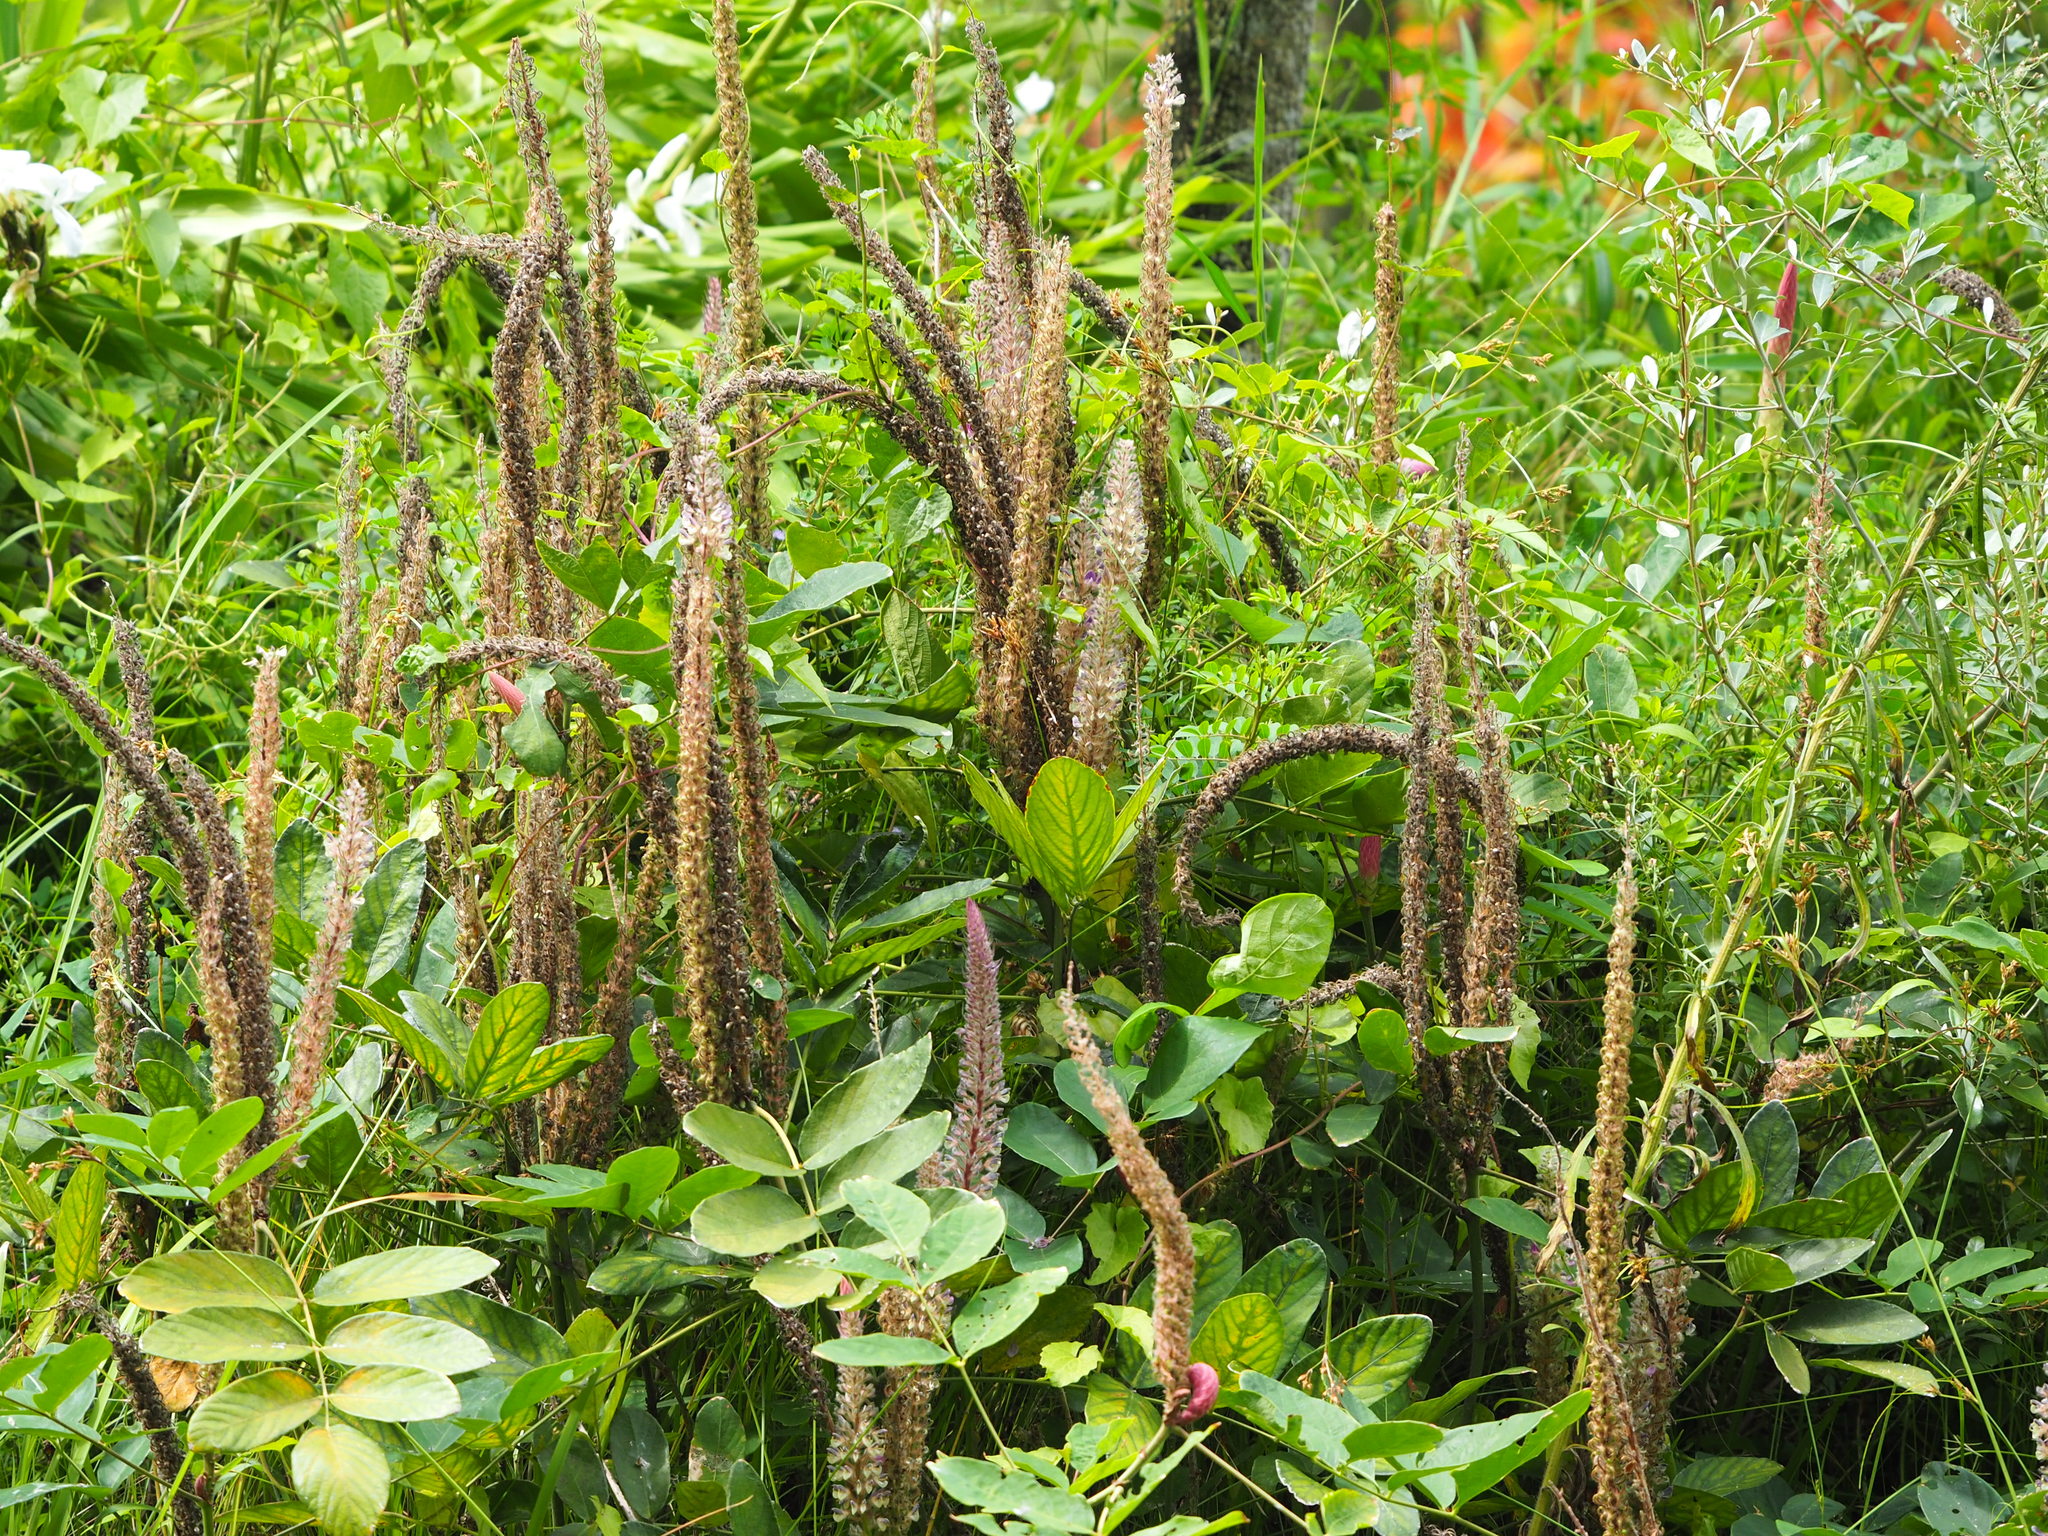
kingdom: Plantae
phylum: Tracheophyta
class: Magnoliopsida
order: Fabales
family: Fabaceae
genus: Uraria
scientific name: Uraria crinita
